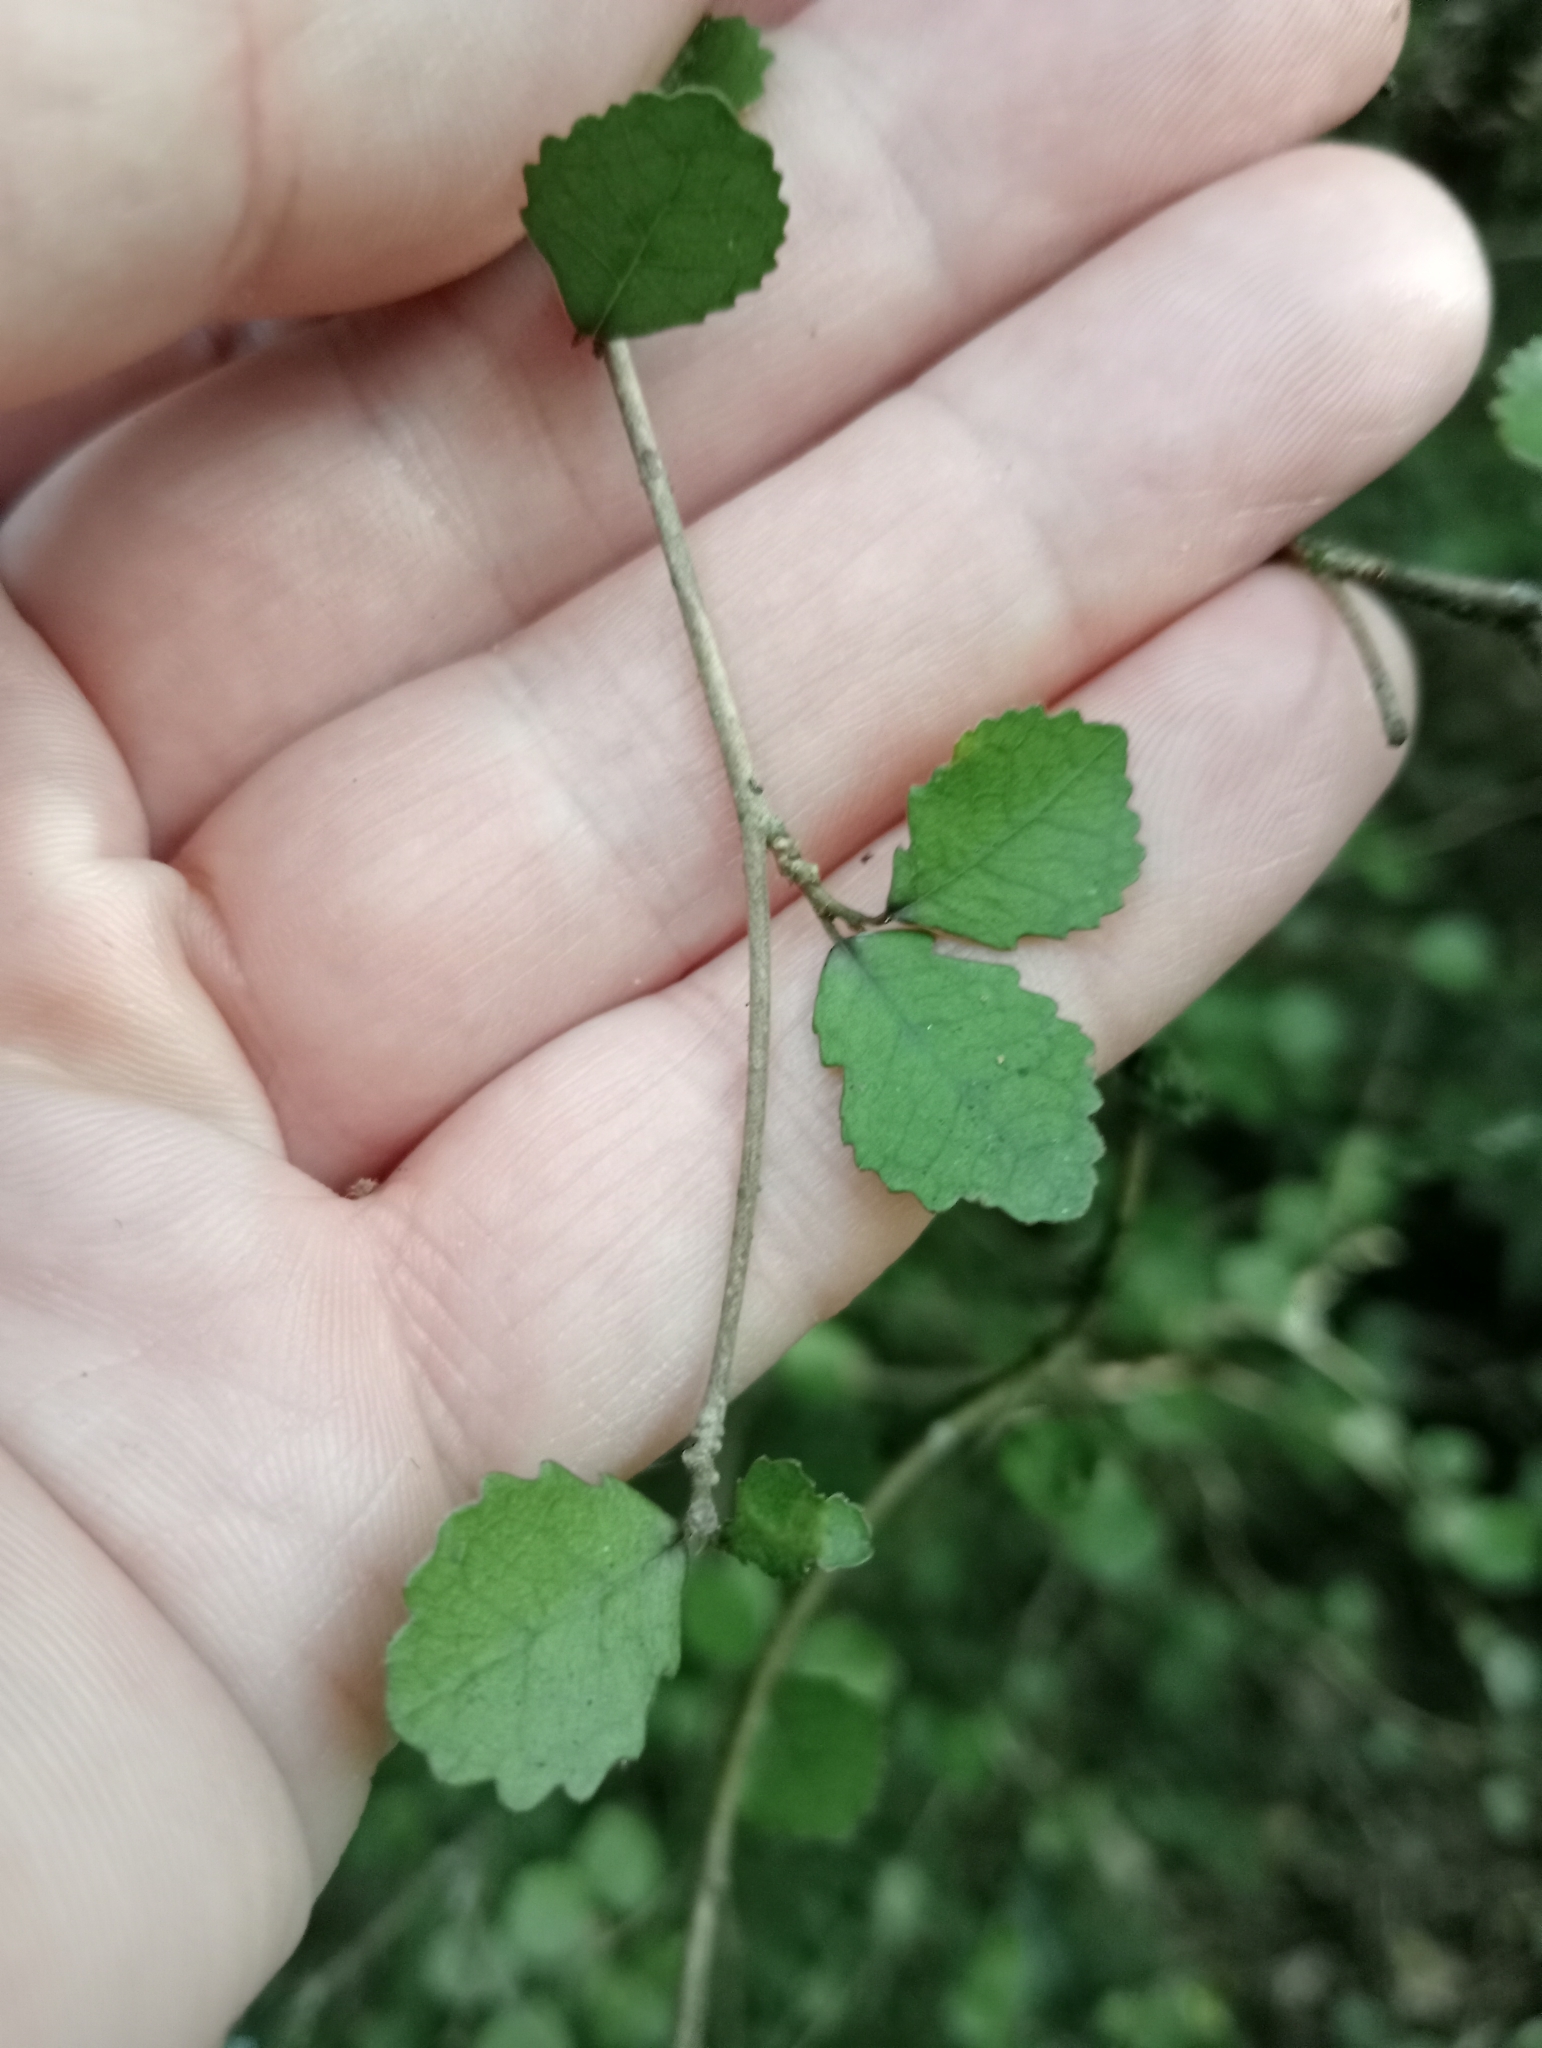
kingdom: Plantae
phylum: Tracheophyta
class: Magnoliopsida
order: Rosales
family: Moraceae
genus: Paratrophis
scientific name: Paratrophis microphylla
